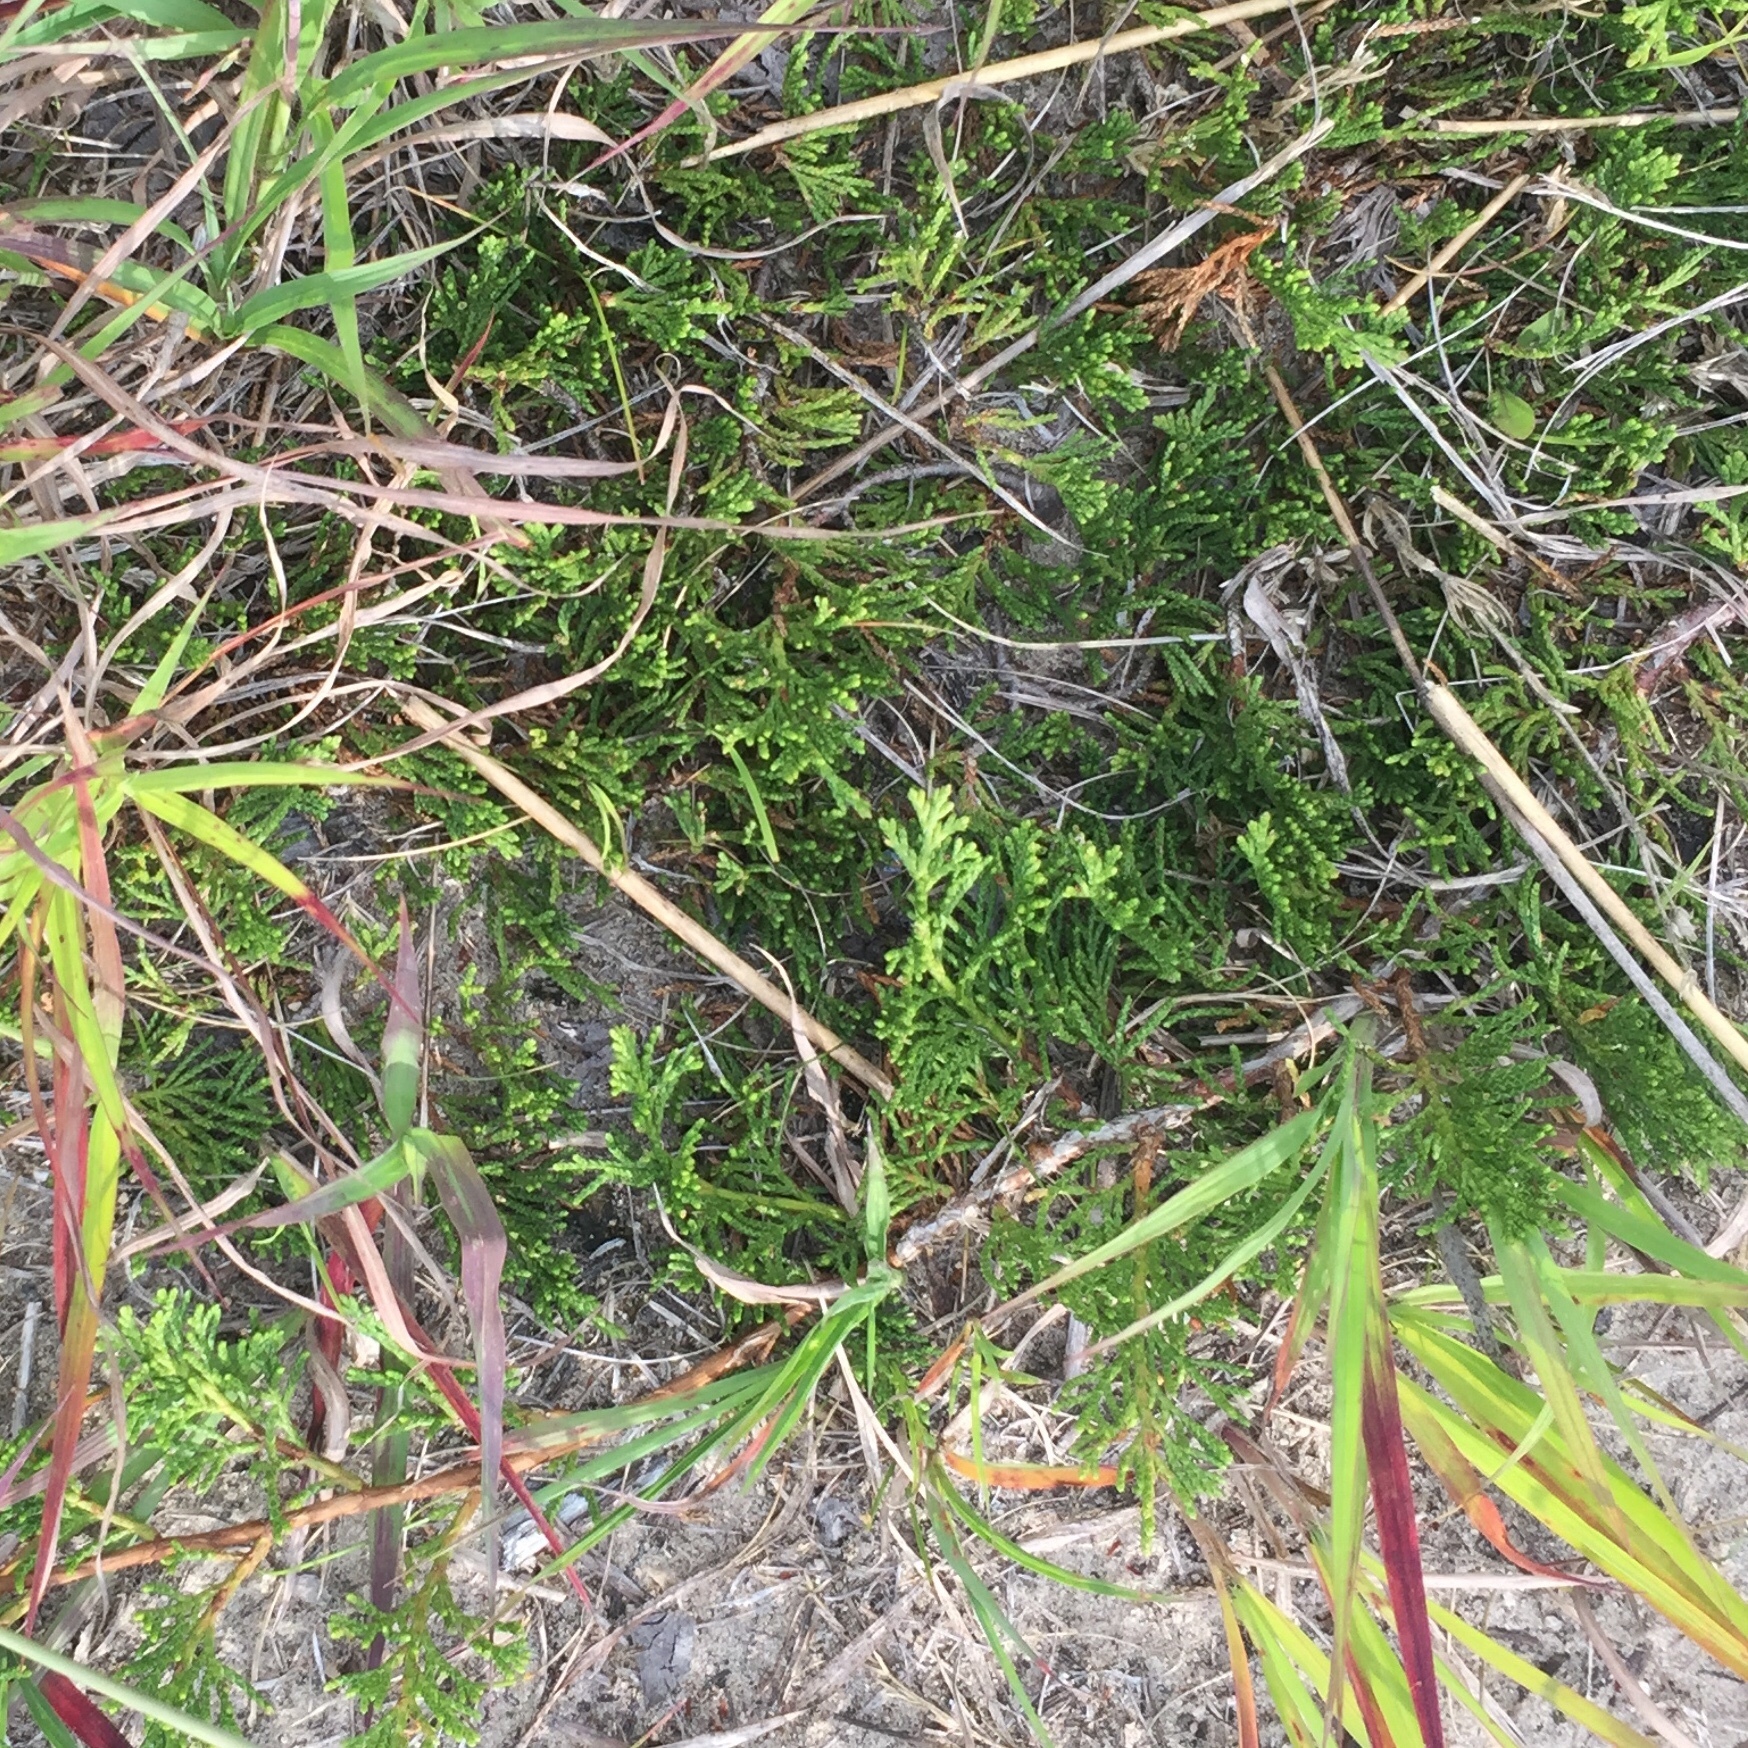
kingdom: Plantae
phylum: Tracheophyta
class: Pinopsida
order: Pinales
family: Cupressaceae
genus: Juniperus
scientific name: Juniperus horizontalis
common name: Creeping juniper
